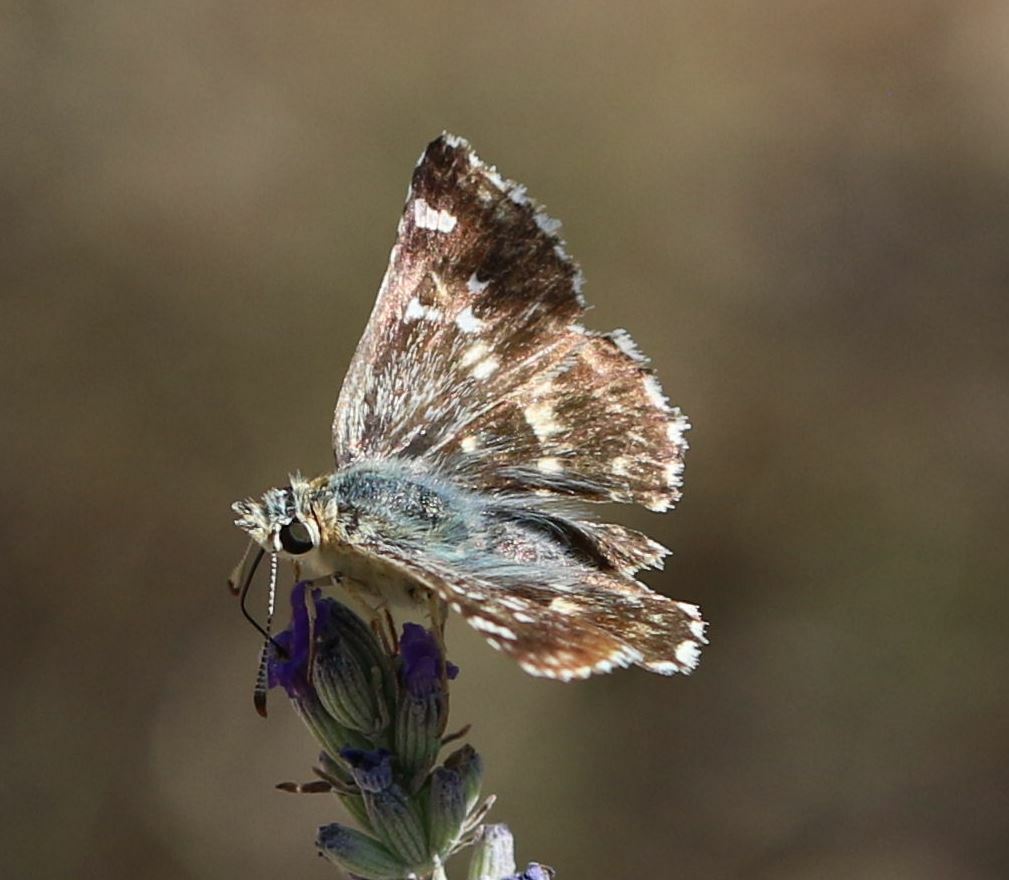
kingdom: Animalia
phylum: Arthropoda
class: Insecta
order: Lepidoptera
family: Hesperiidae
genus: Syrichtus
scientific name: Syrichtus Muschampia proto
